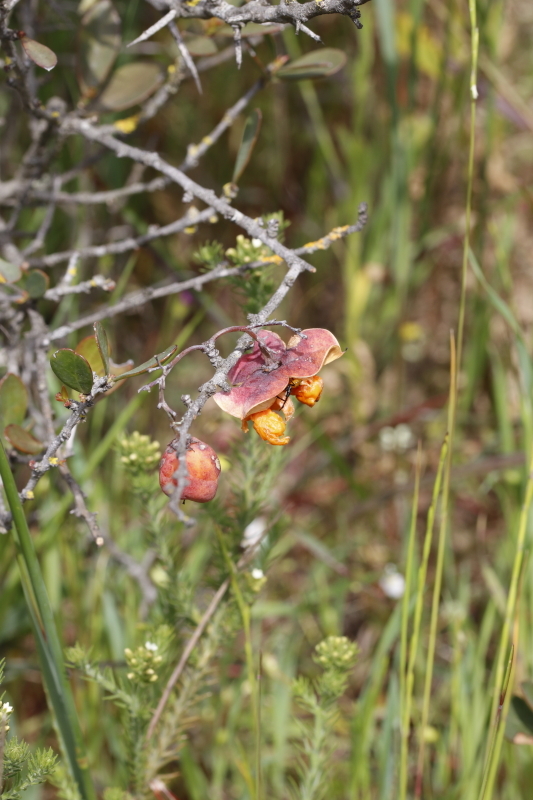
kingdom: Plantae
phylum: Tracheophyta
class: Magnoliopsida
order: Celastrales
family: Celastraceae
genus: Putterlickia
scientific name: Putterlickia pyracantha
